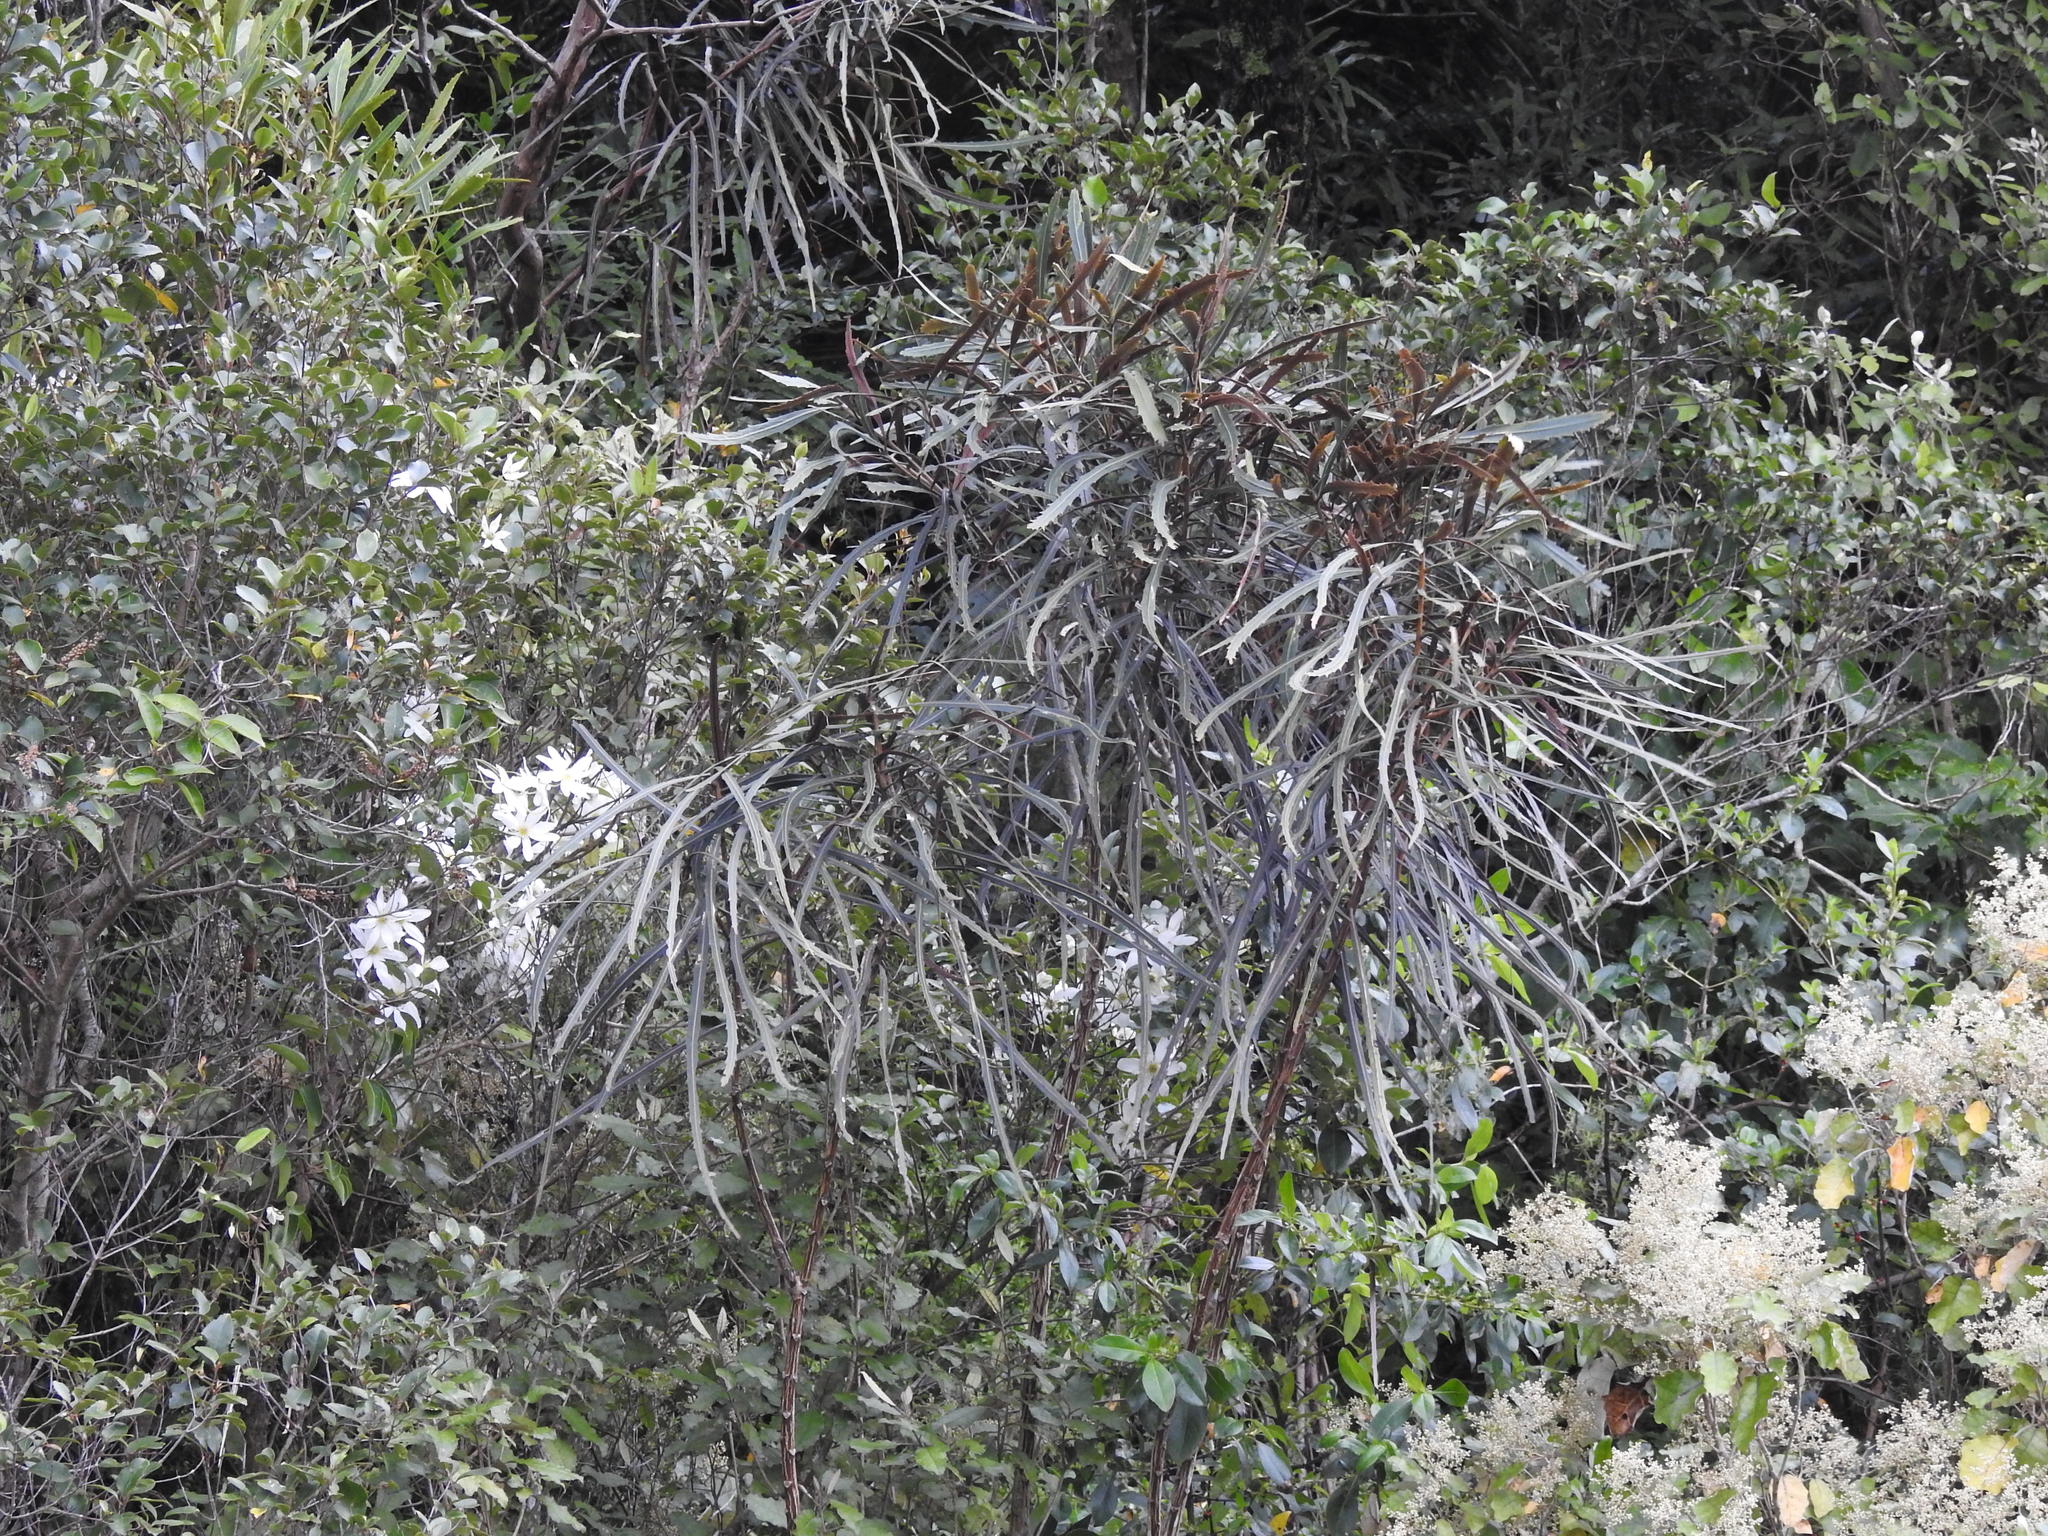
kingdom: Plantae
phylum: Tracheophyta
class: Magnoliopsida
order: Apiales
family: Araliaceae
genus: Pseudopanax
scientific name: Pseudopanax crassifolius
